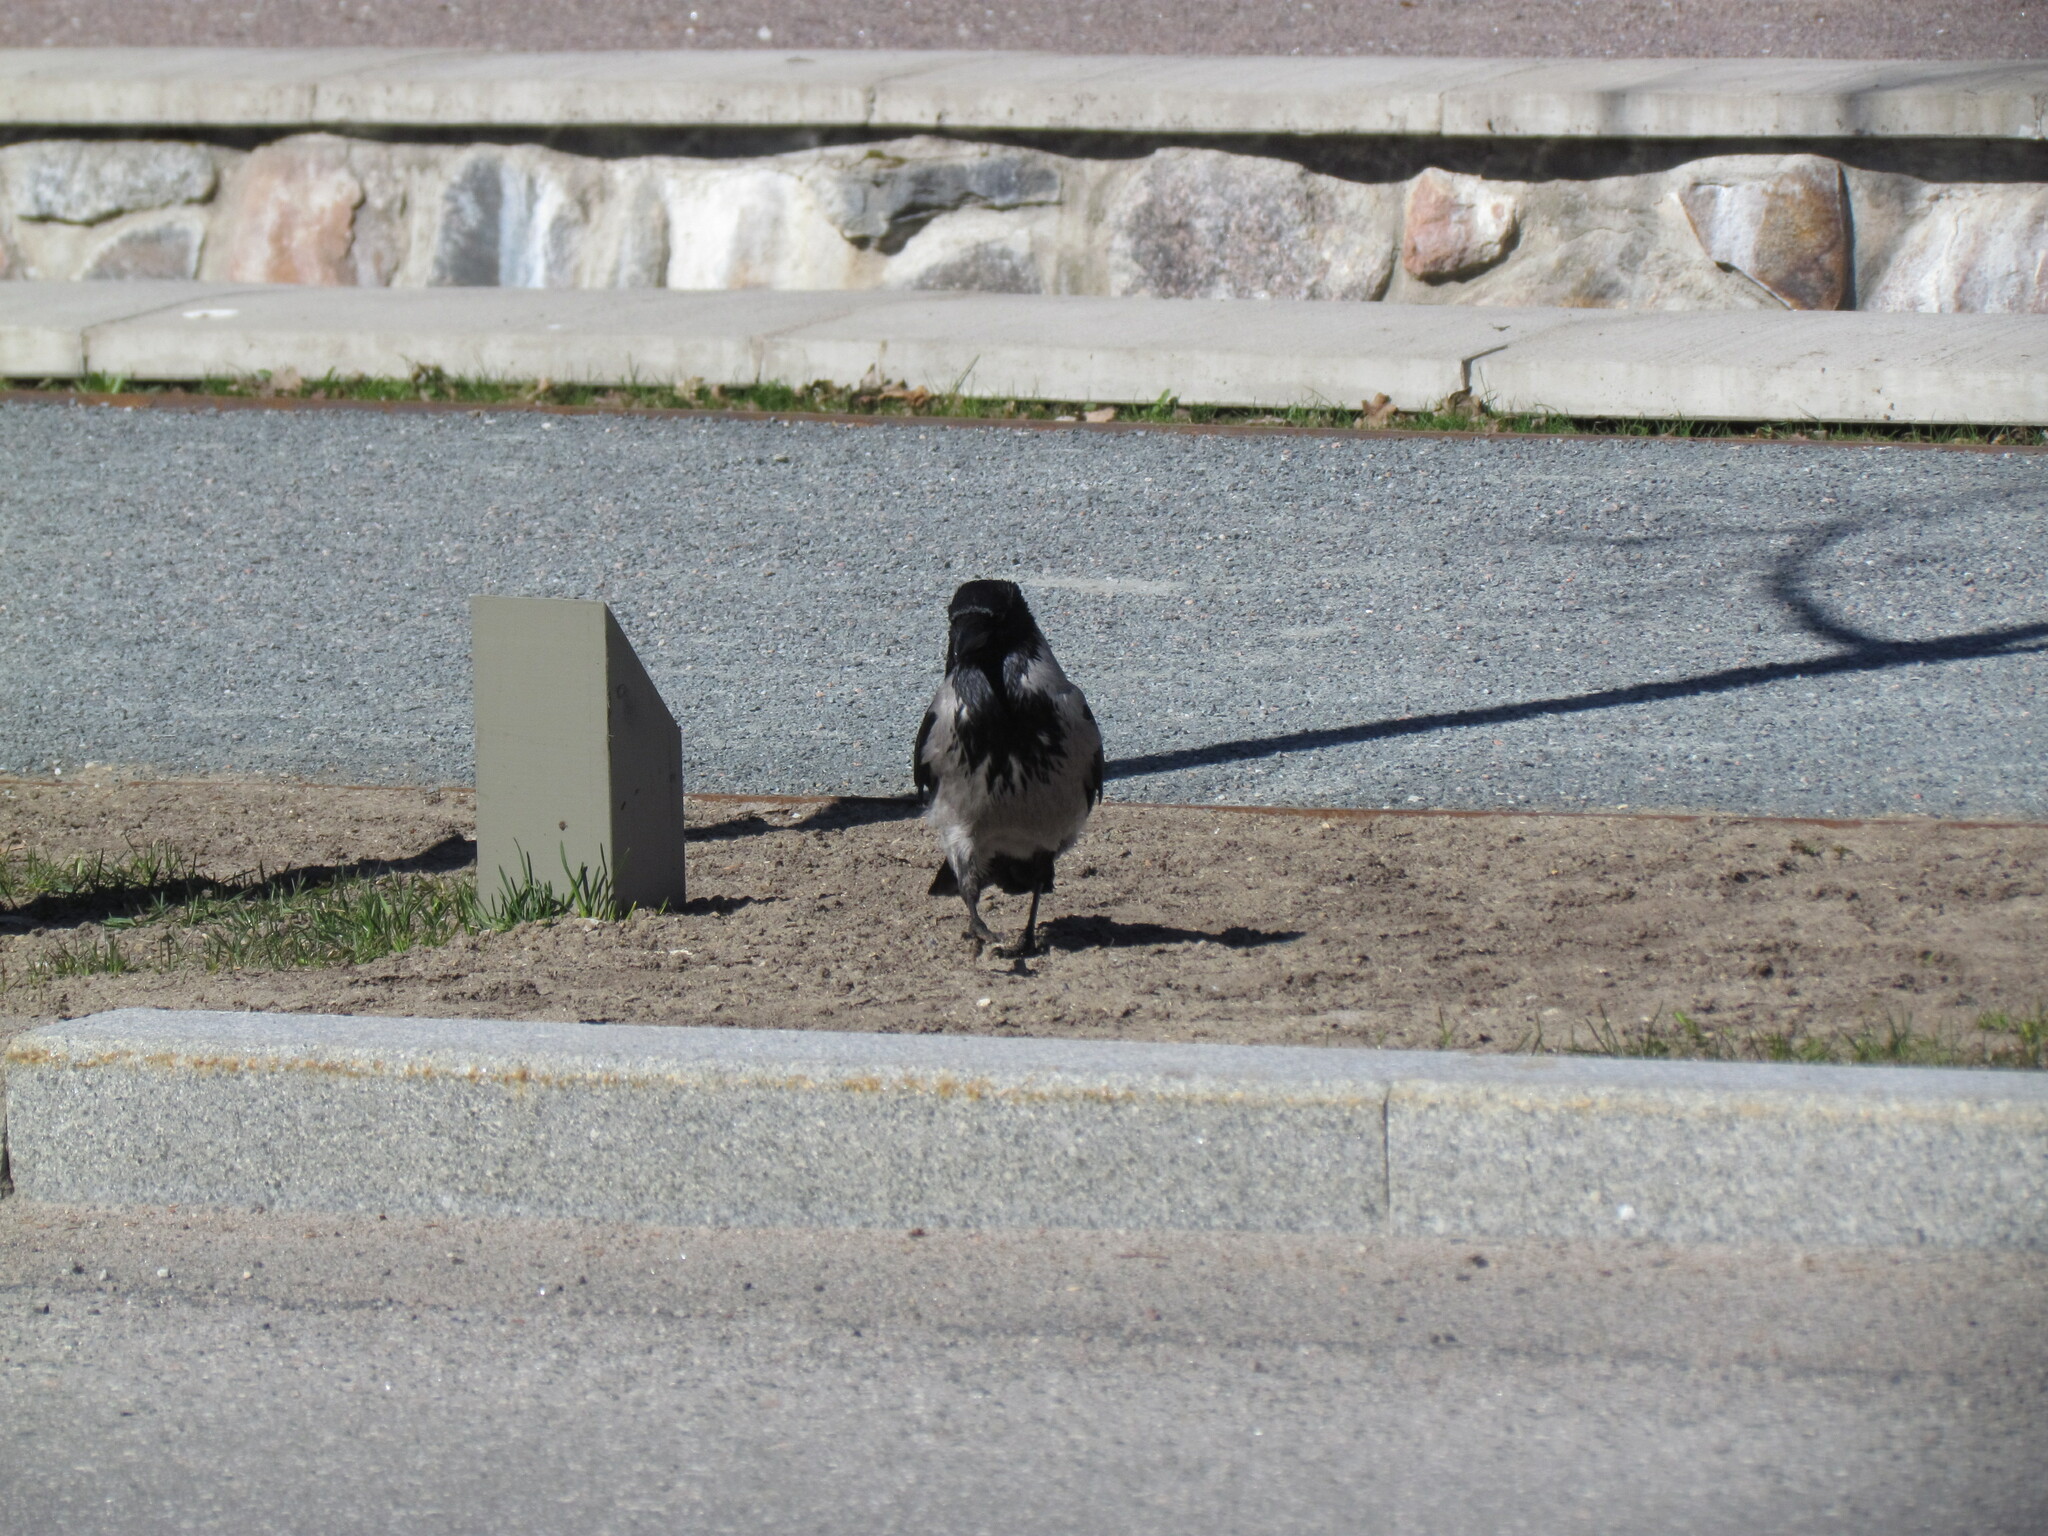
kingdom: Animalia
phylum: Chordata
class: Aves
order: Passeriformes
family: Corvidae
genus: Corvus
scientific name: Corvus cornix
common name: Hooded crow
